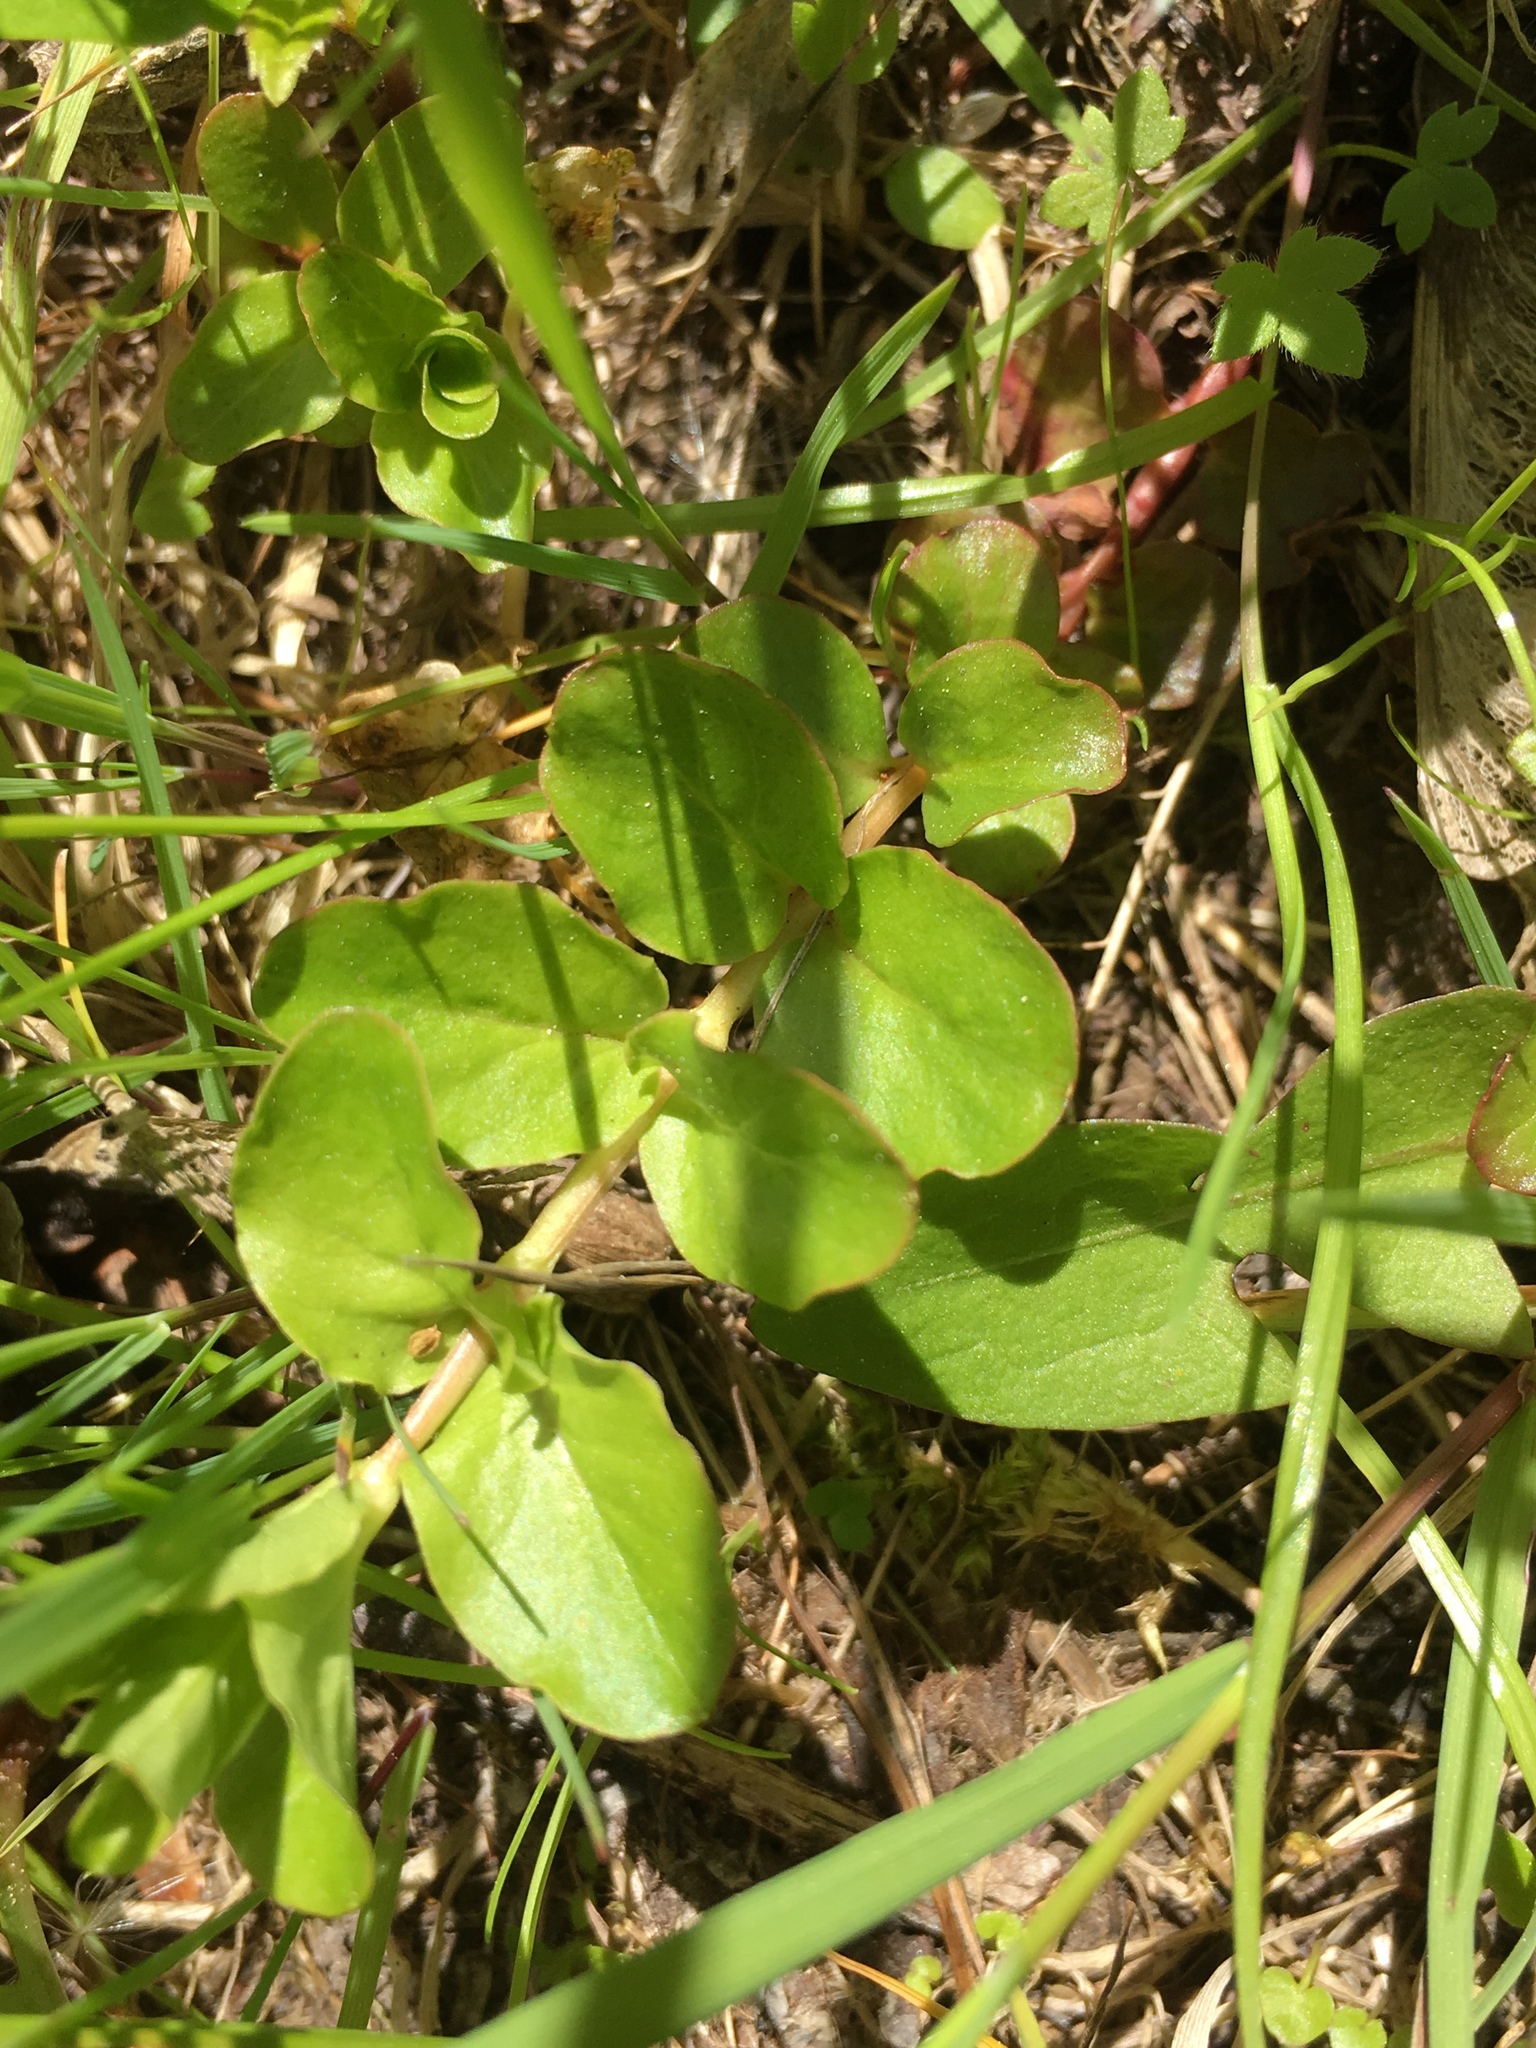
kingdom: Plantae
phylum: Tracheophyta
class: Magnoliopsida
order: Ericales
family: Primulaceae
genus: Lysimachia
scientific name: Lysimachia nummularia
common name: Moneywort
